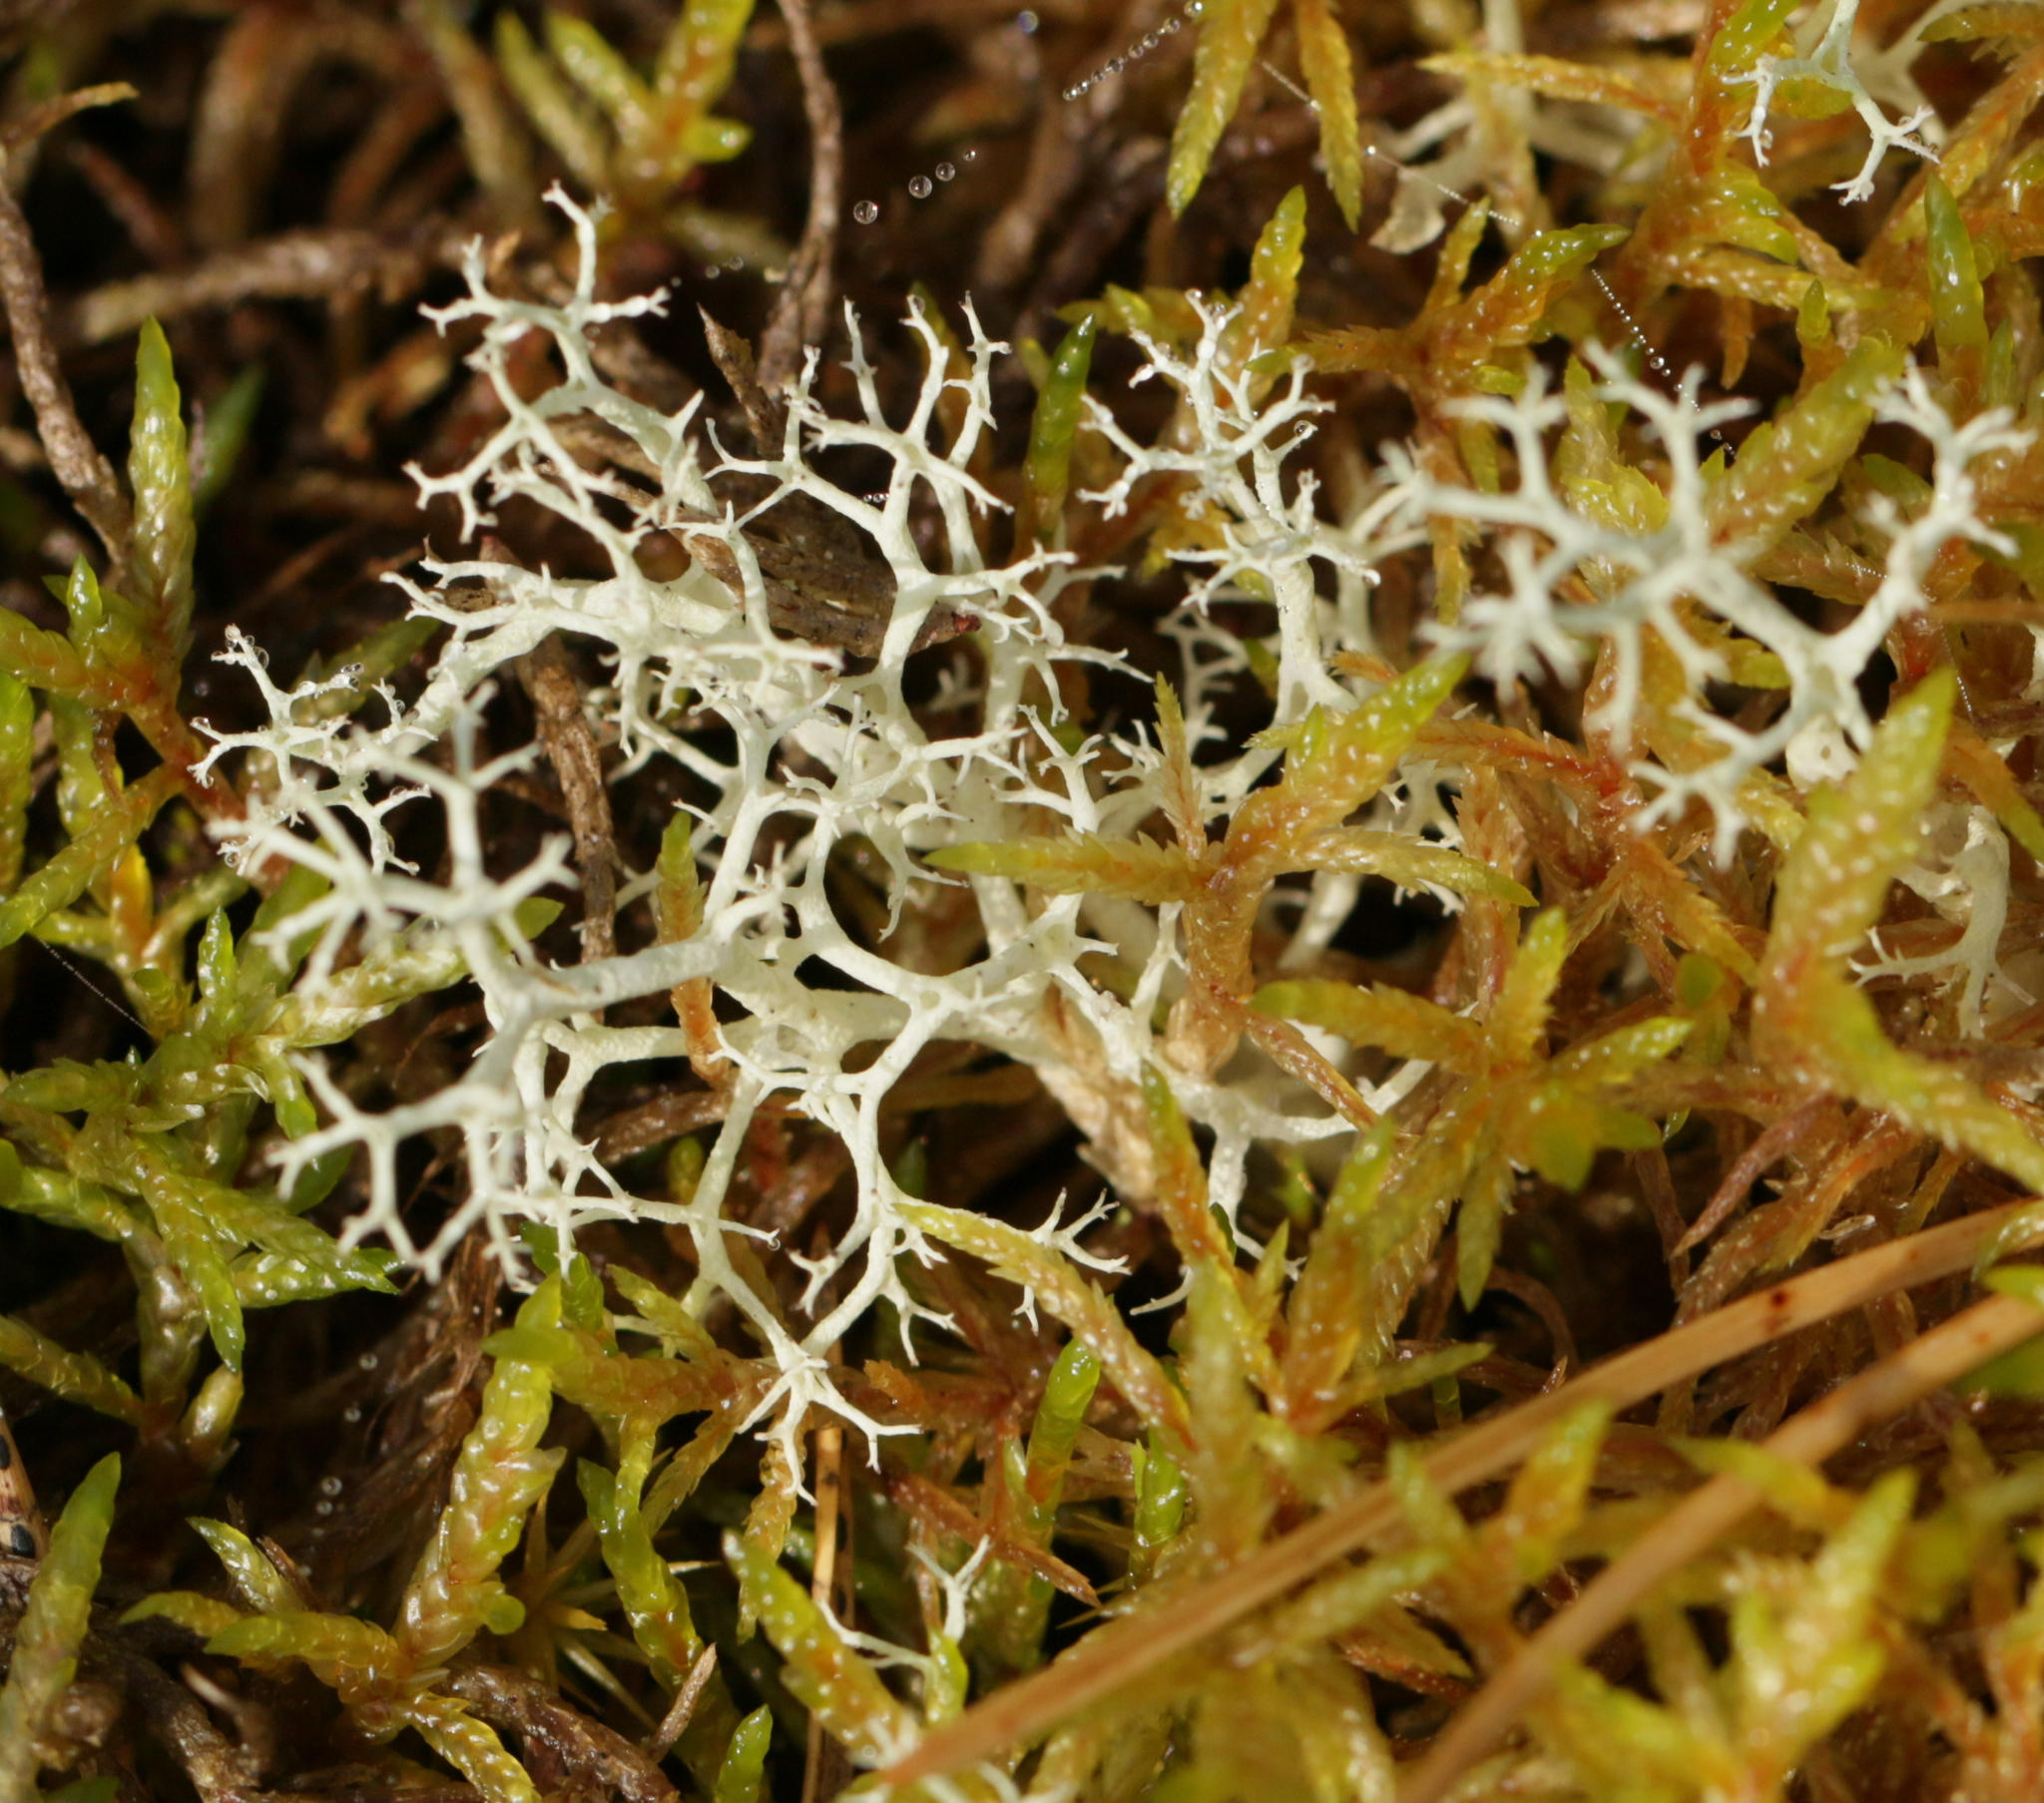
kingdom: Fungi
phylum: Ascomycota
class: Lecanoromycetes
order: Lecanorales
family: Cladoniaceae
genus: Cladonia
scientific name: Cladonia portentosa
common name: Reindeer lichen
